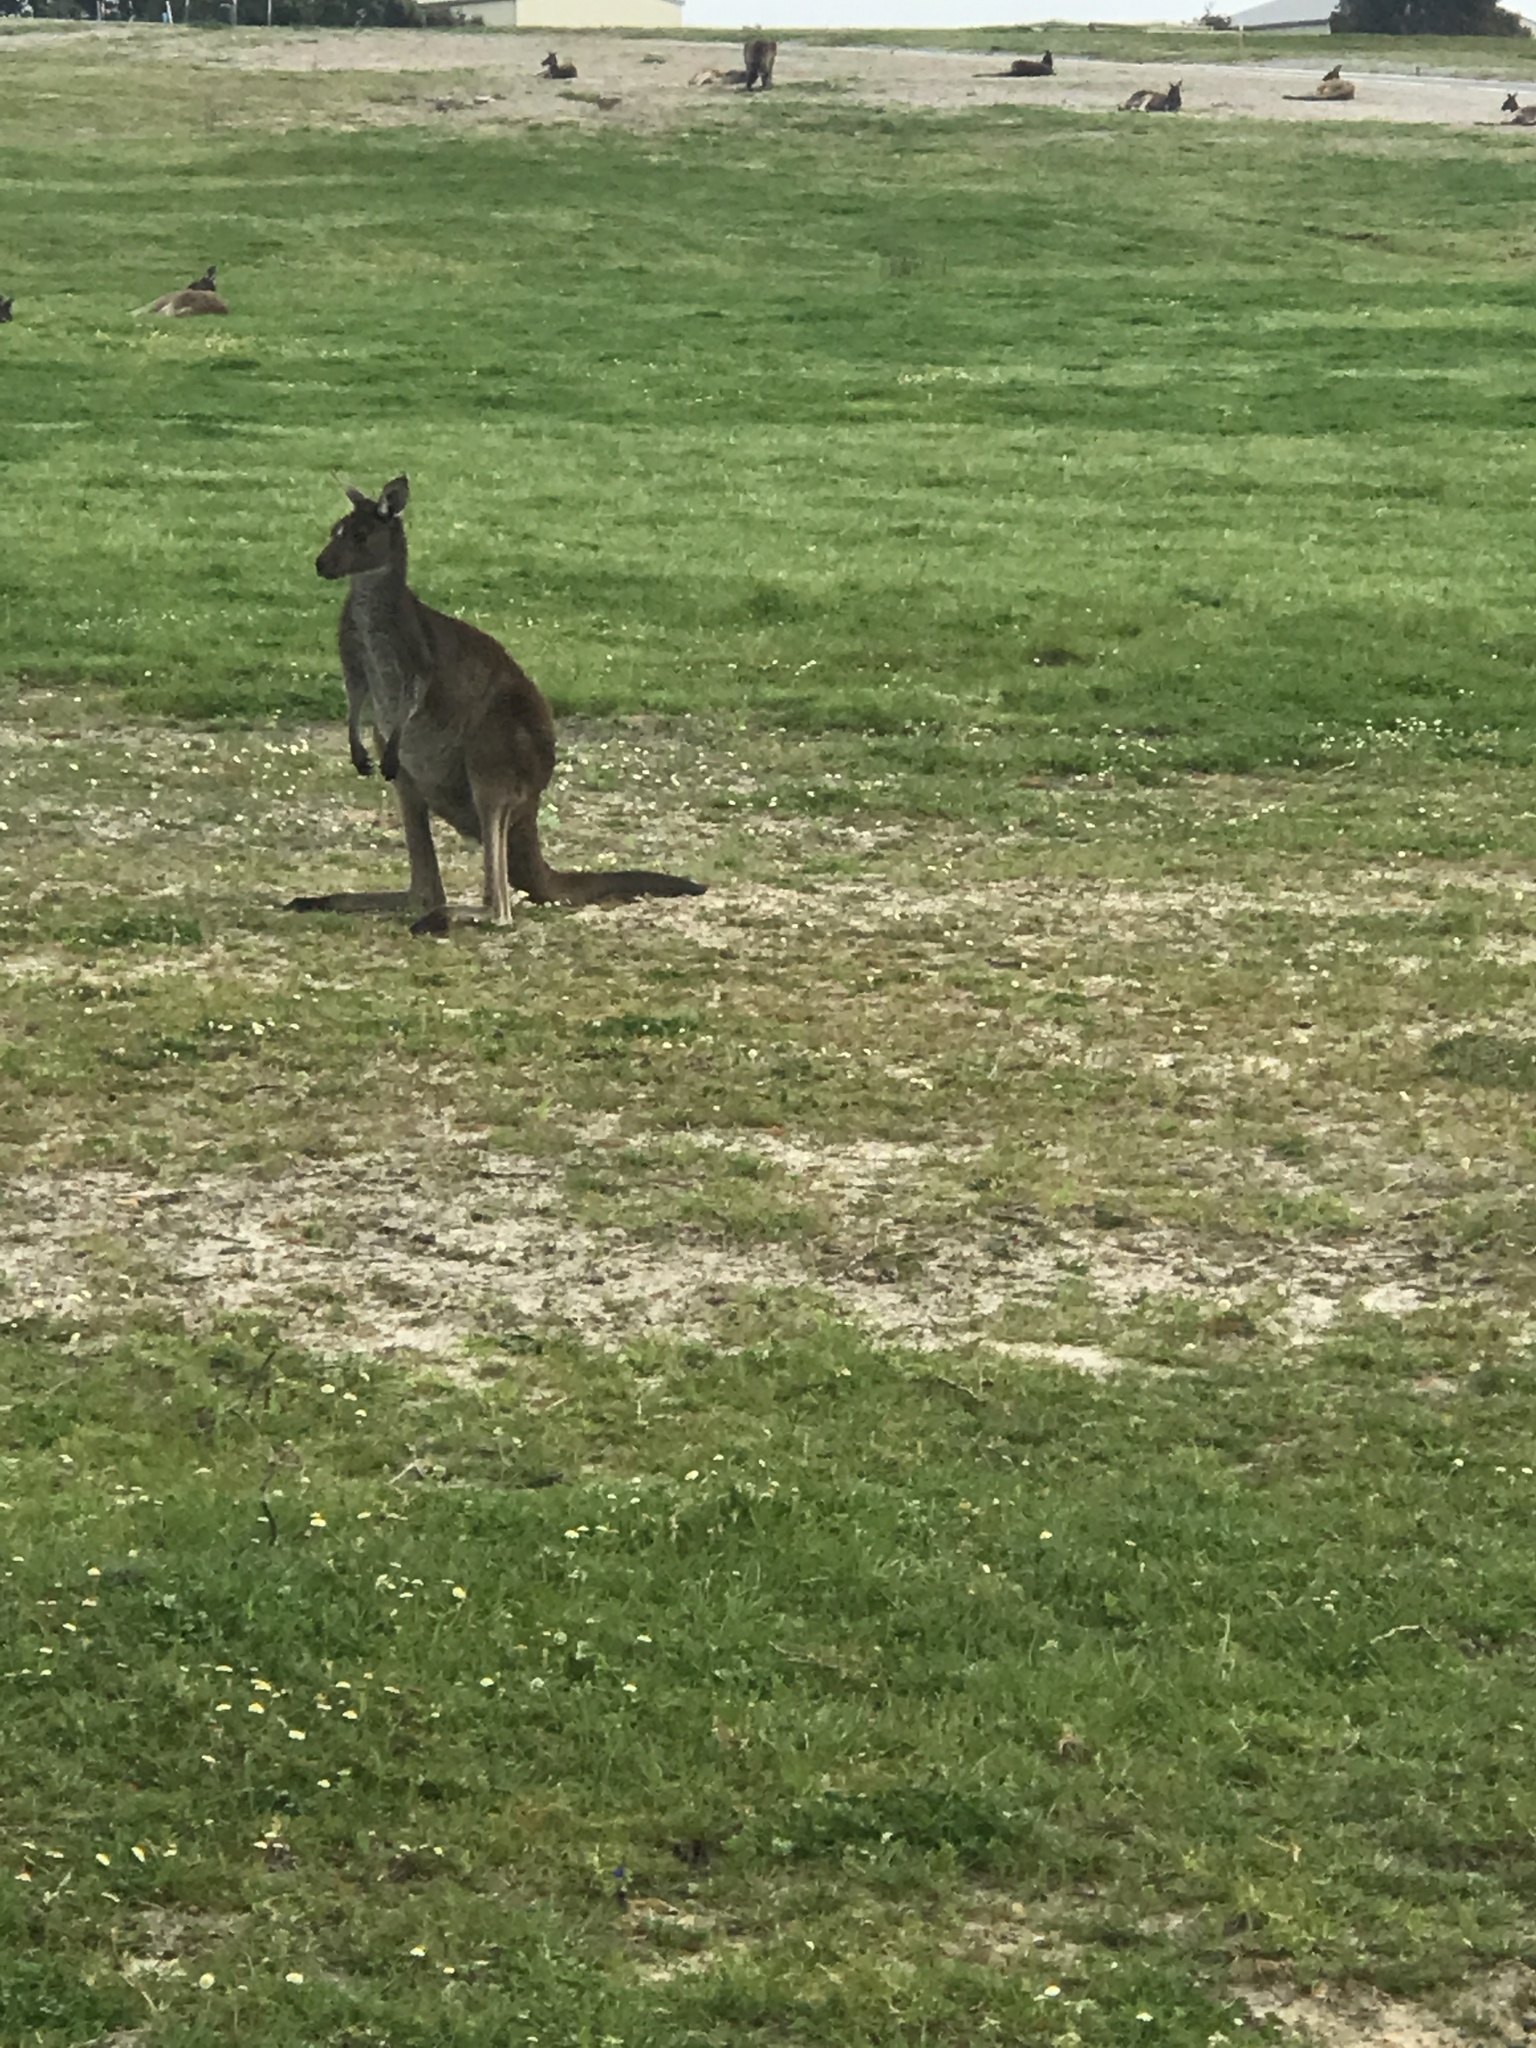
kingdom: Animalia
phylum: Chordata
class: Mammalia
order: Diprotodontia
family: Macropodidae
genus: Macropus
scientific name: Macropus fuliginosus
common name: Western grey kangaroo
